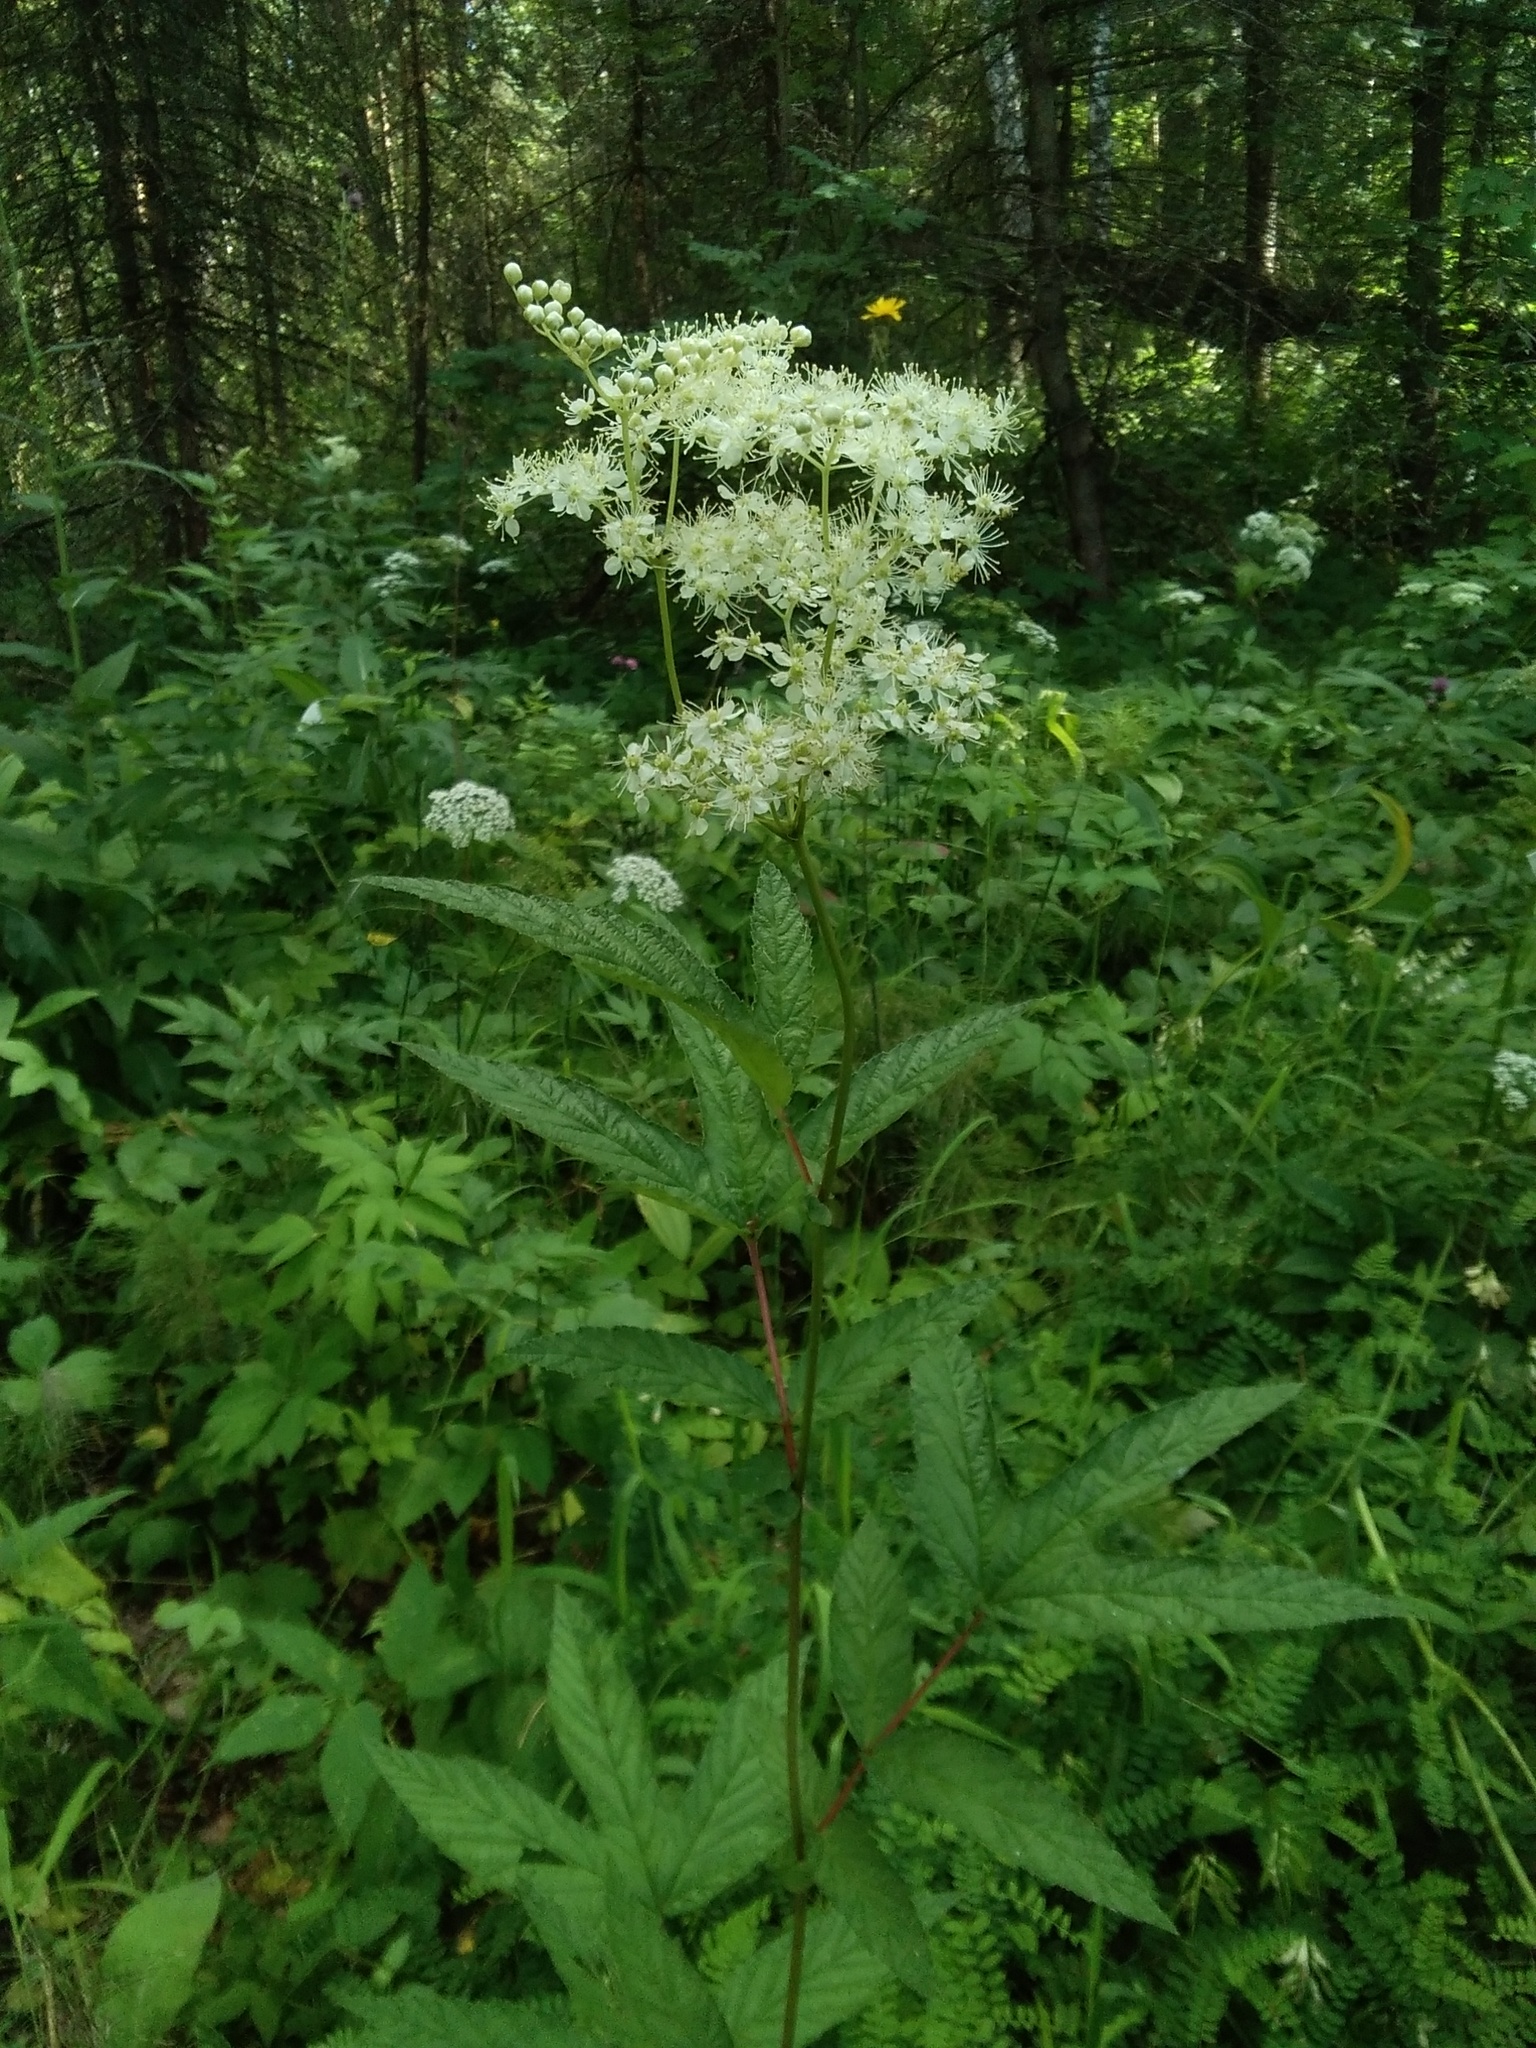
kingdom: Plantae
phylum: Tracheophyta
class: Magnoliopsida
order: Rosales
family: Rosaceae
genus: Filipendula
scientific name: Filipendula ulmaria
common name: Meadowsweet
